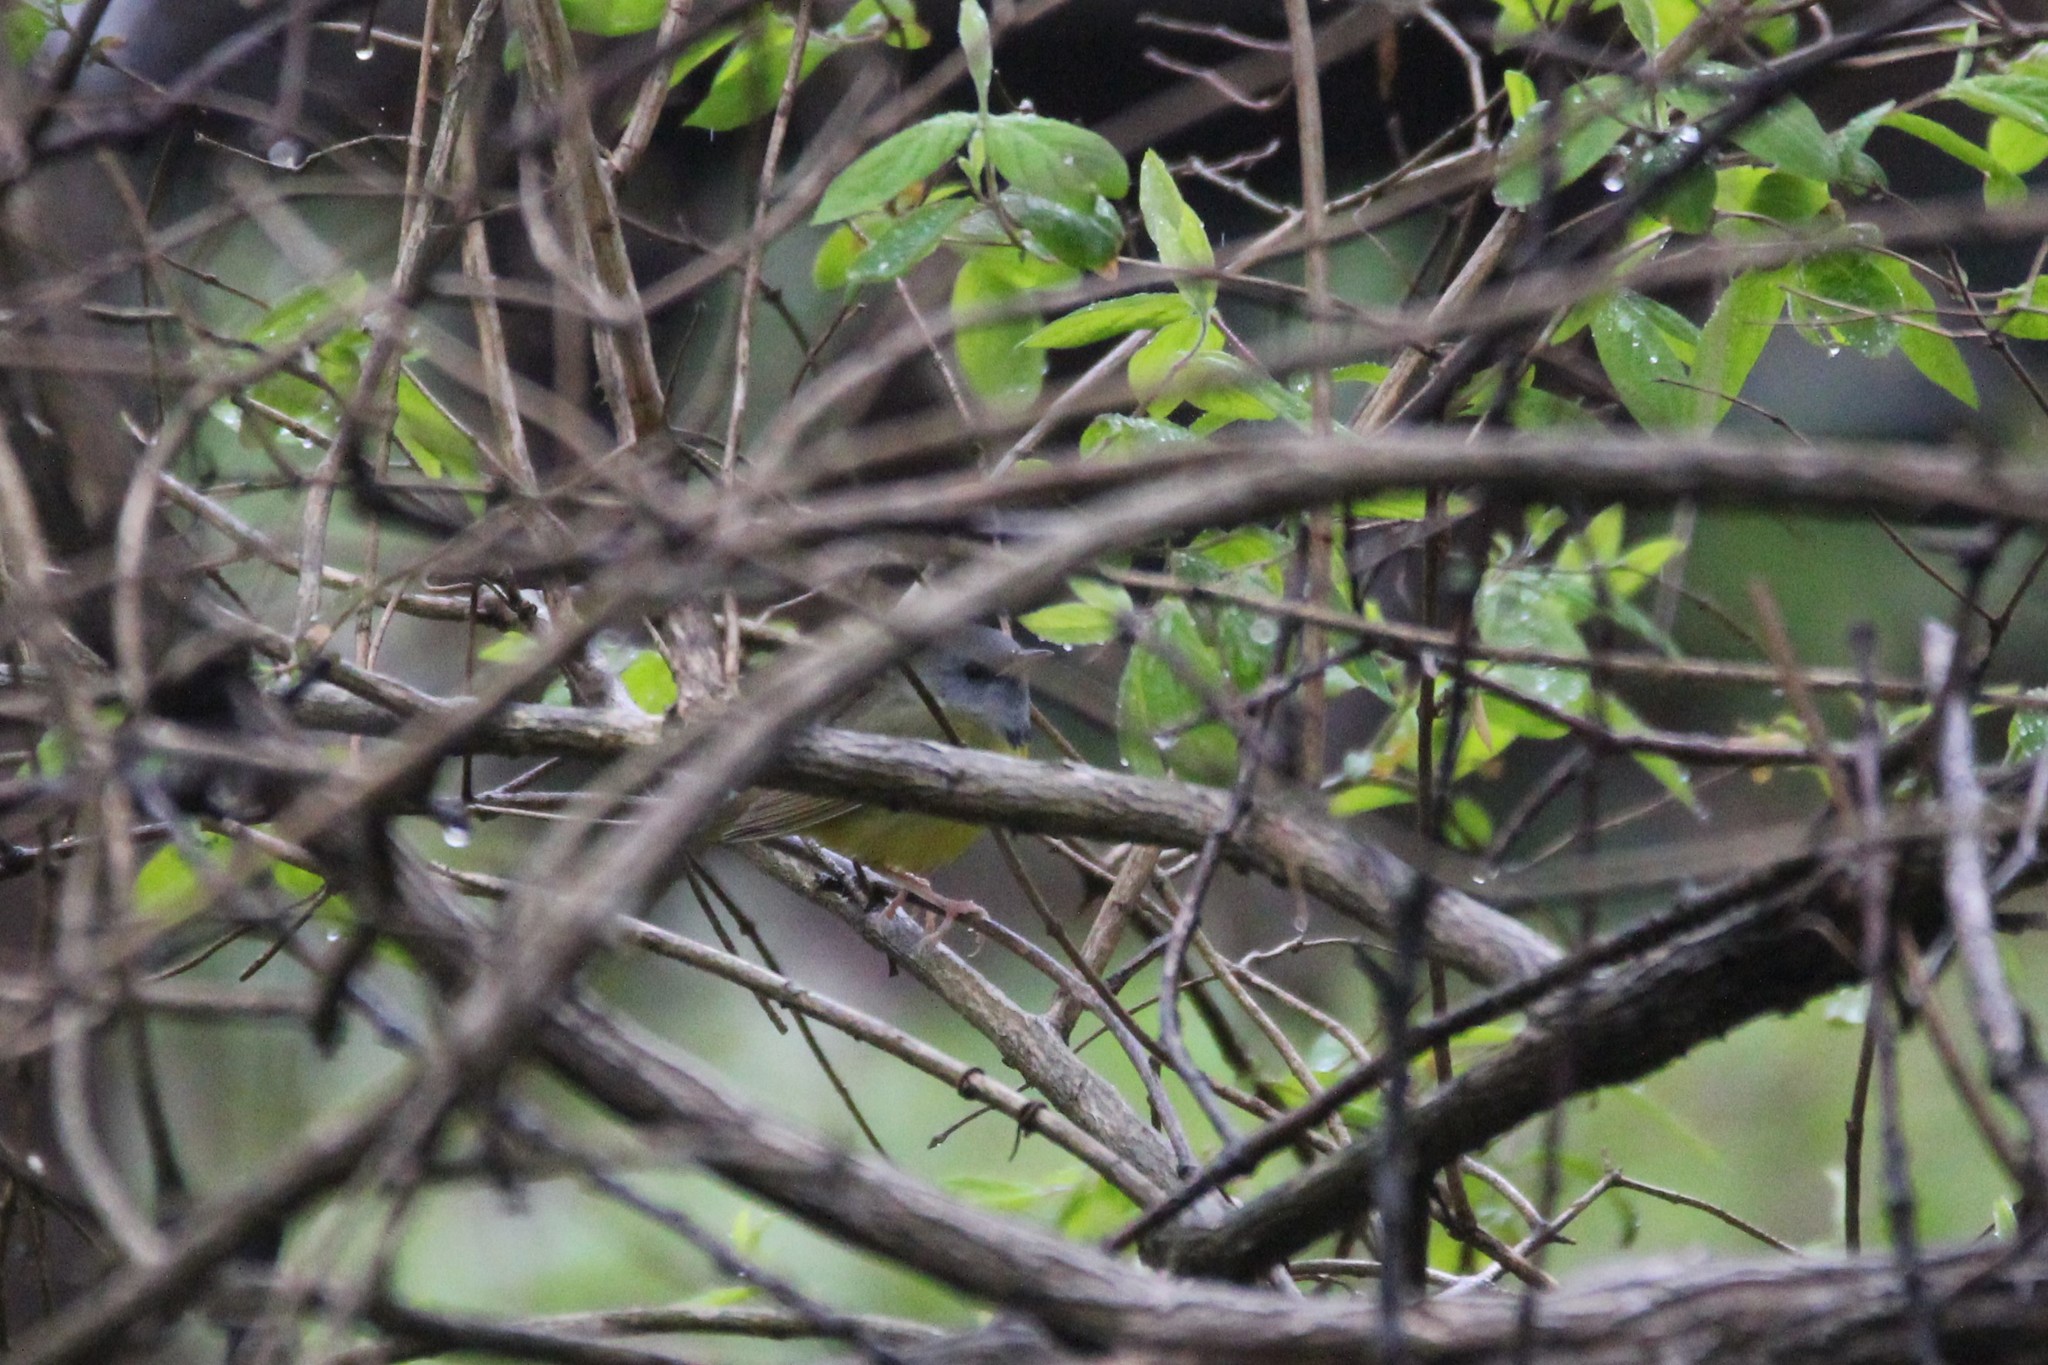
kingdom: Animalia
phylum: Chordata
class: Aves
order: Passeriformes
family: Parulidae
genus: Geothlypis
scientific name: Geothlypis philadelphia
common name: Mourning warbler
